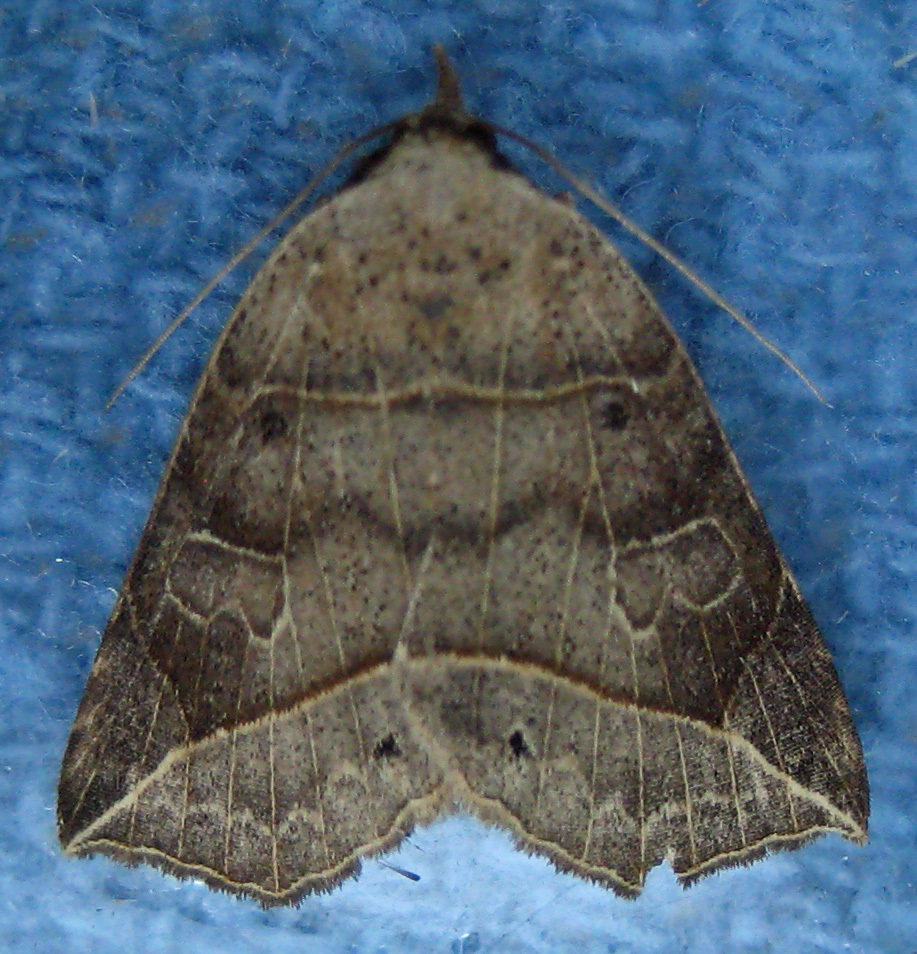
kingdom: Animalia
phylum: Arthropoda
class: Insecta
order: Lepidoptera
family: Erebidae
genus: Isogona
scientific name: Isogona tenuis
